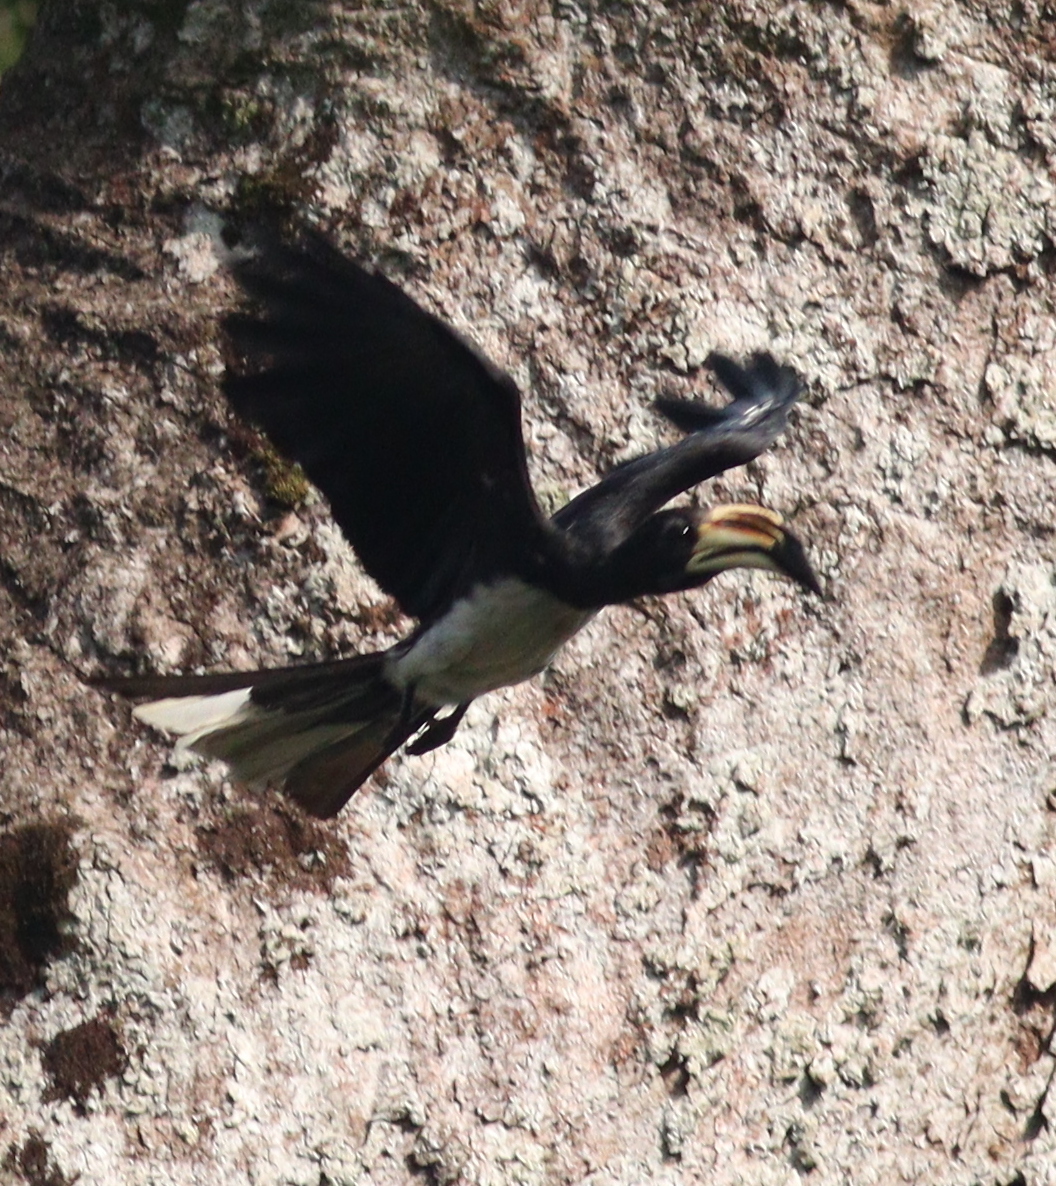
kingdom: Animalia
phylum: Chordata
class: Aves
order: Bucerotiformes
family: Bucerotidae
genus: Lophoceros
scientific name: Lophoceros fasciatus
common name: African pied hornbill
